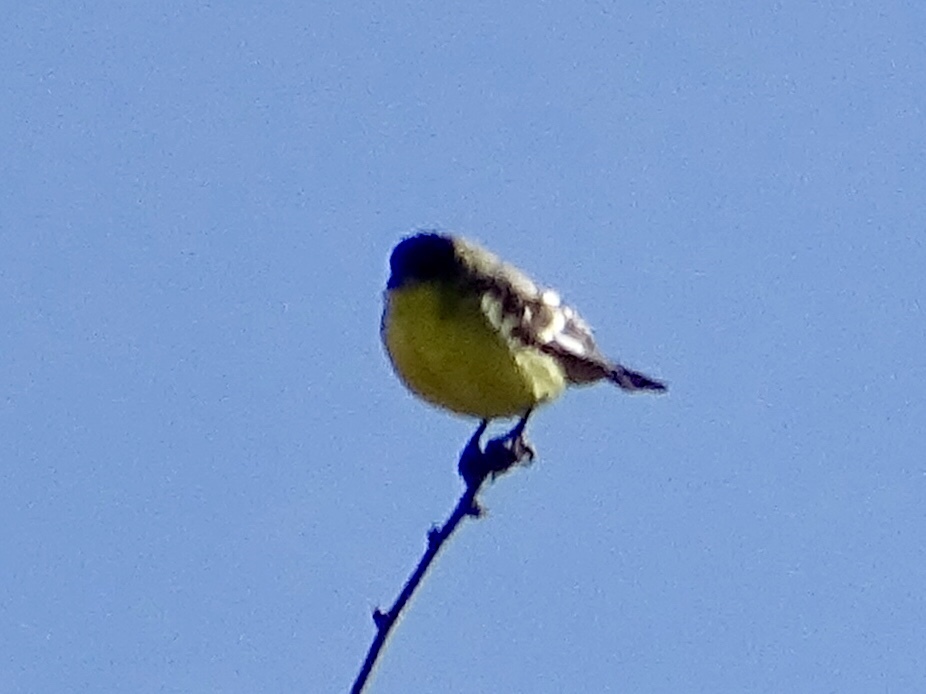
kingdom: Animalia
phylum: Chordata
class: Aves
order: Passeriformes
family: Fringillidae
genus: Spinus
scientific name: Spinus psaltria
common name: Lesser goldfinch
